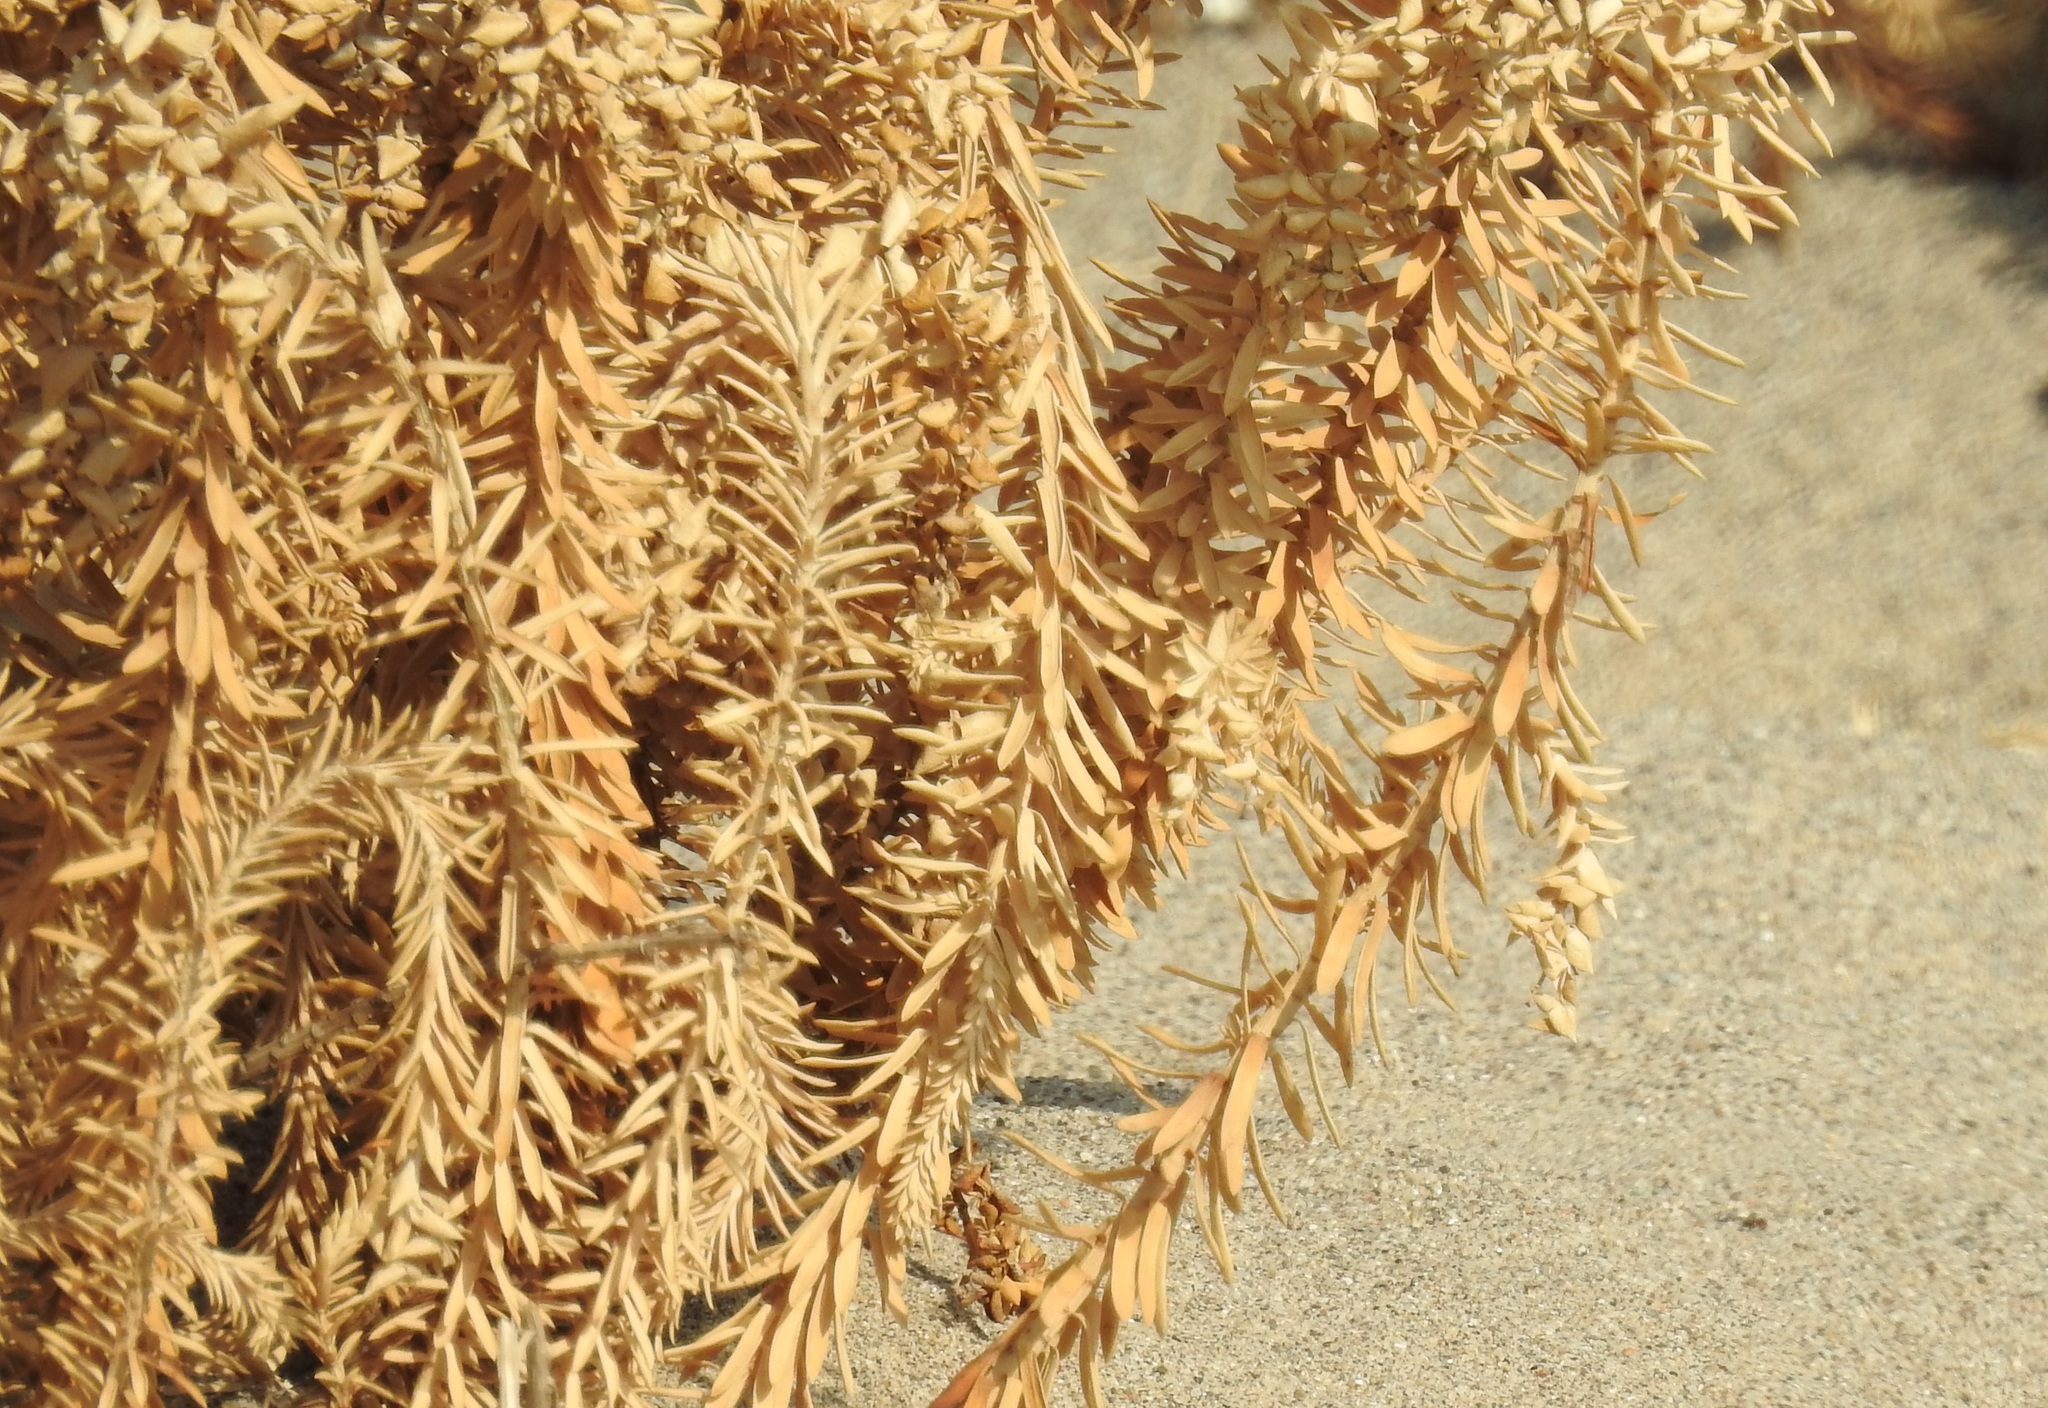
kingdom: Plantae
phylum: Tracheophyta
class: Magnoliopsida
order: Malpighiales
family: Euphorbiaceae
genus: Euphorbia
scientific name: Euphorbia paralias
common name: Sea spurge
